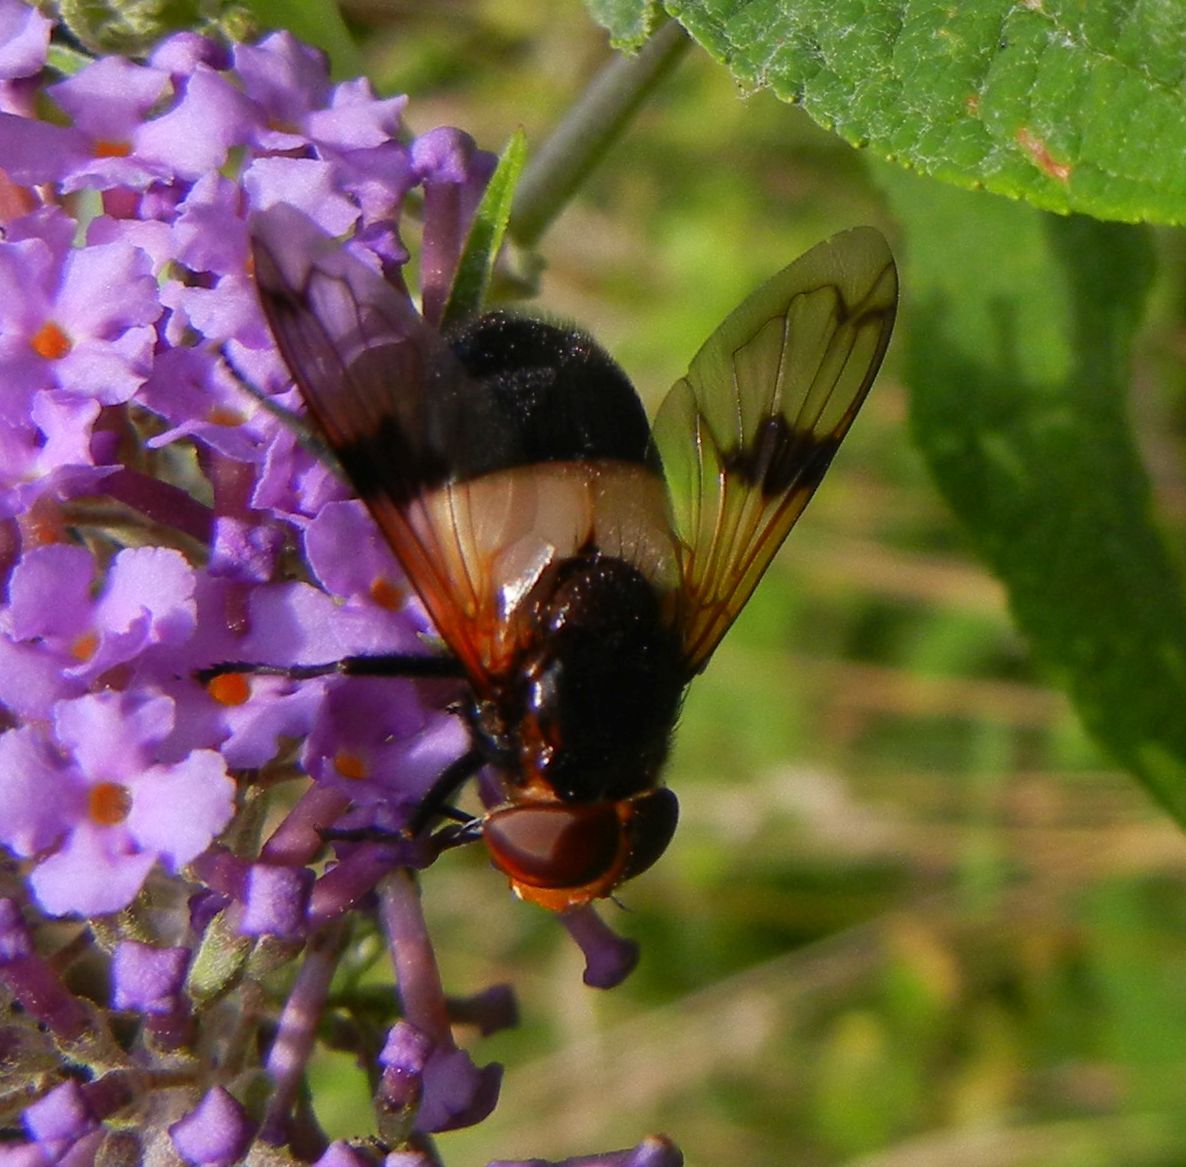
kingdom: Animalia
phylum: Arthropoda
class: Insecta
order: Diptera
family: Syrphidae
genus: Volucella
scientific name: Volucella pellucens
